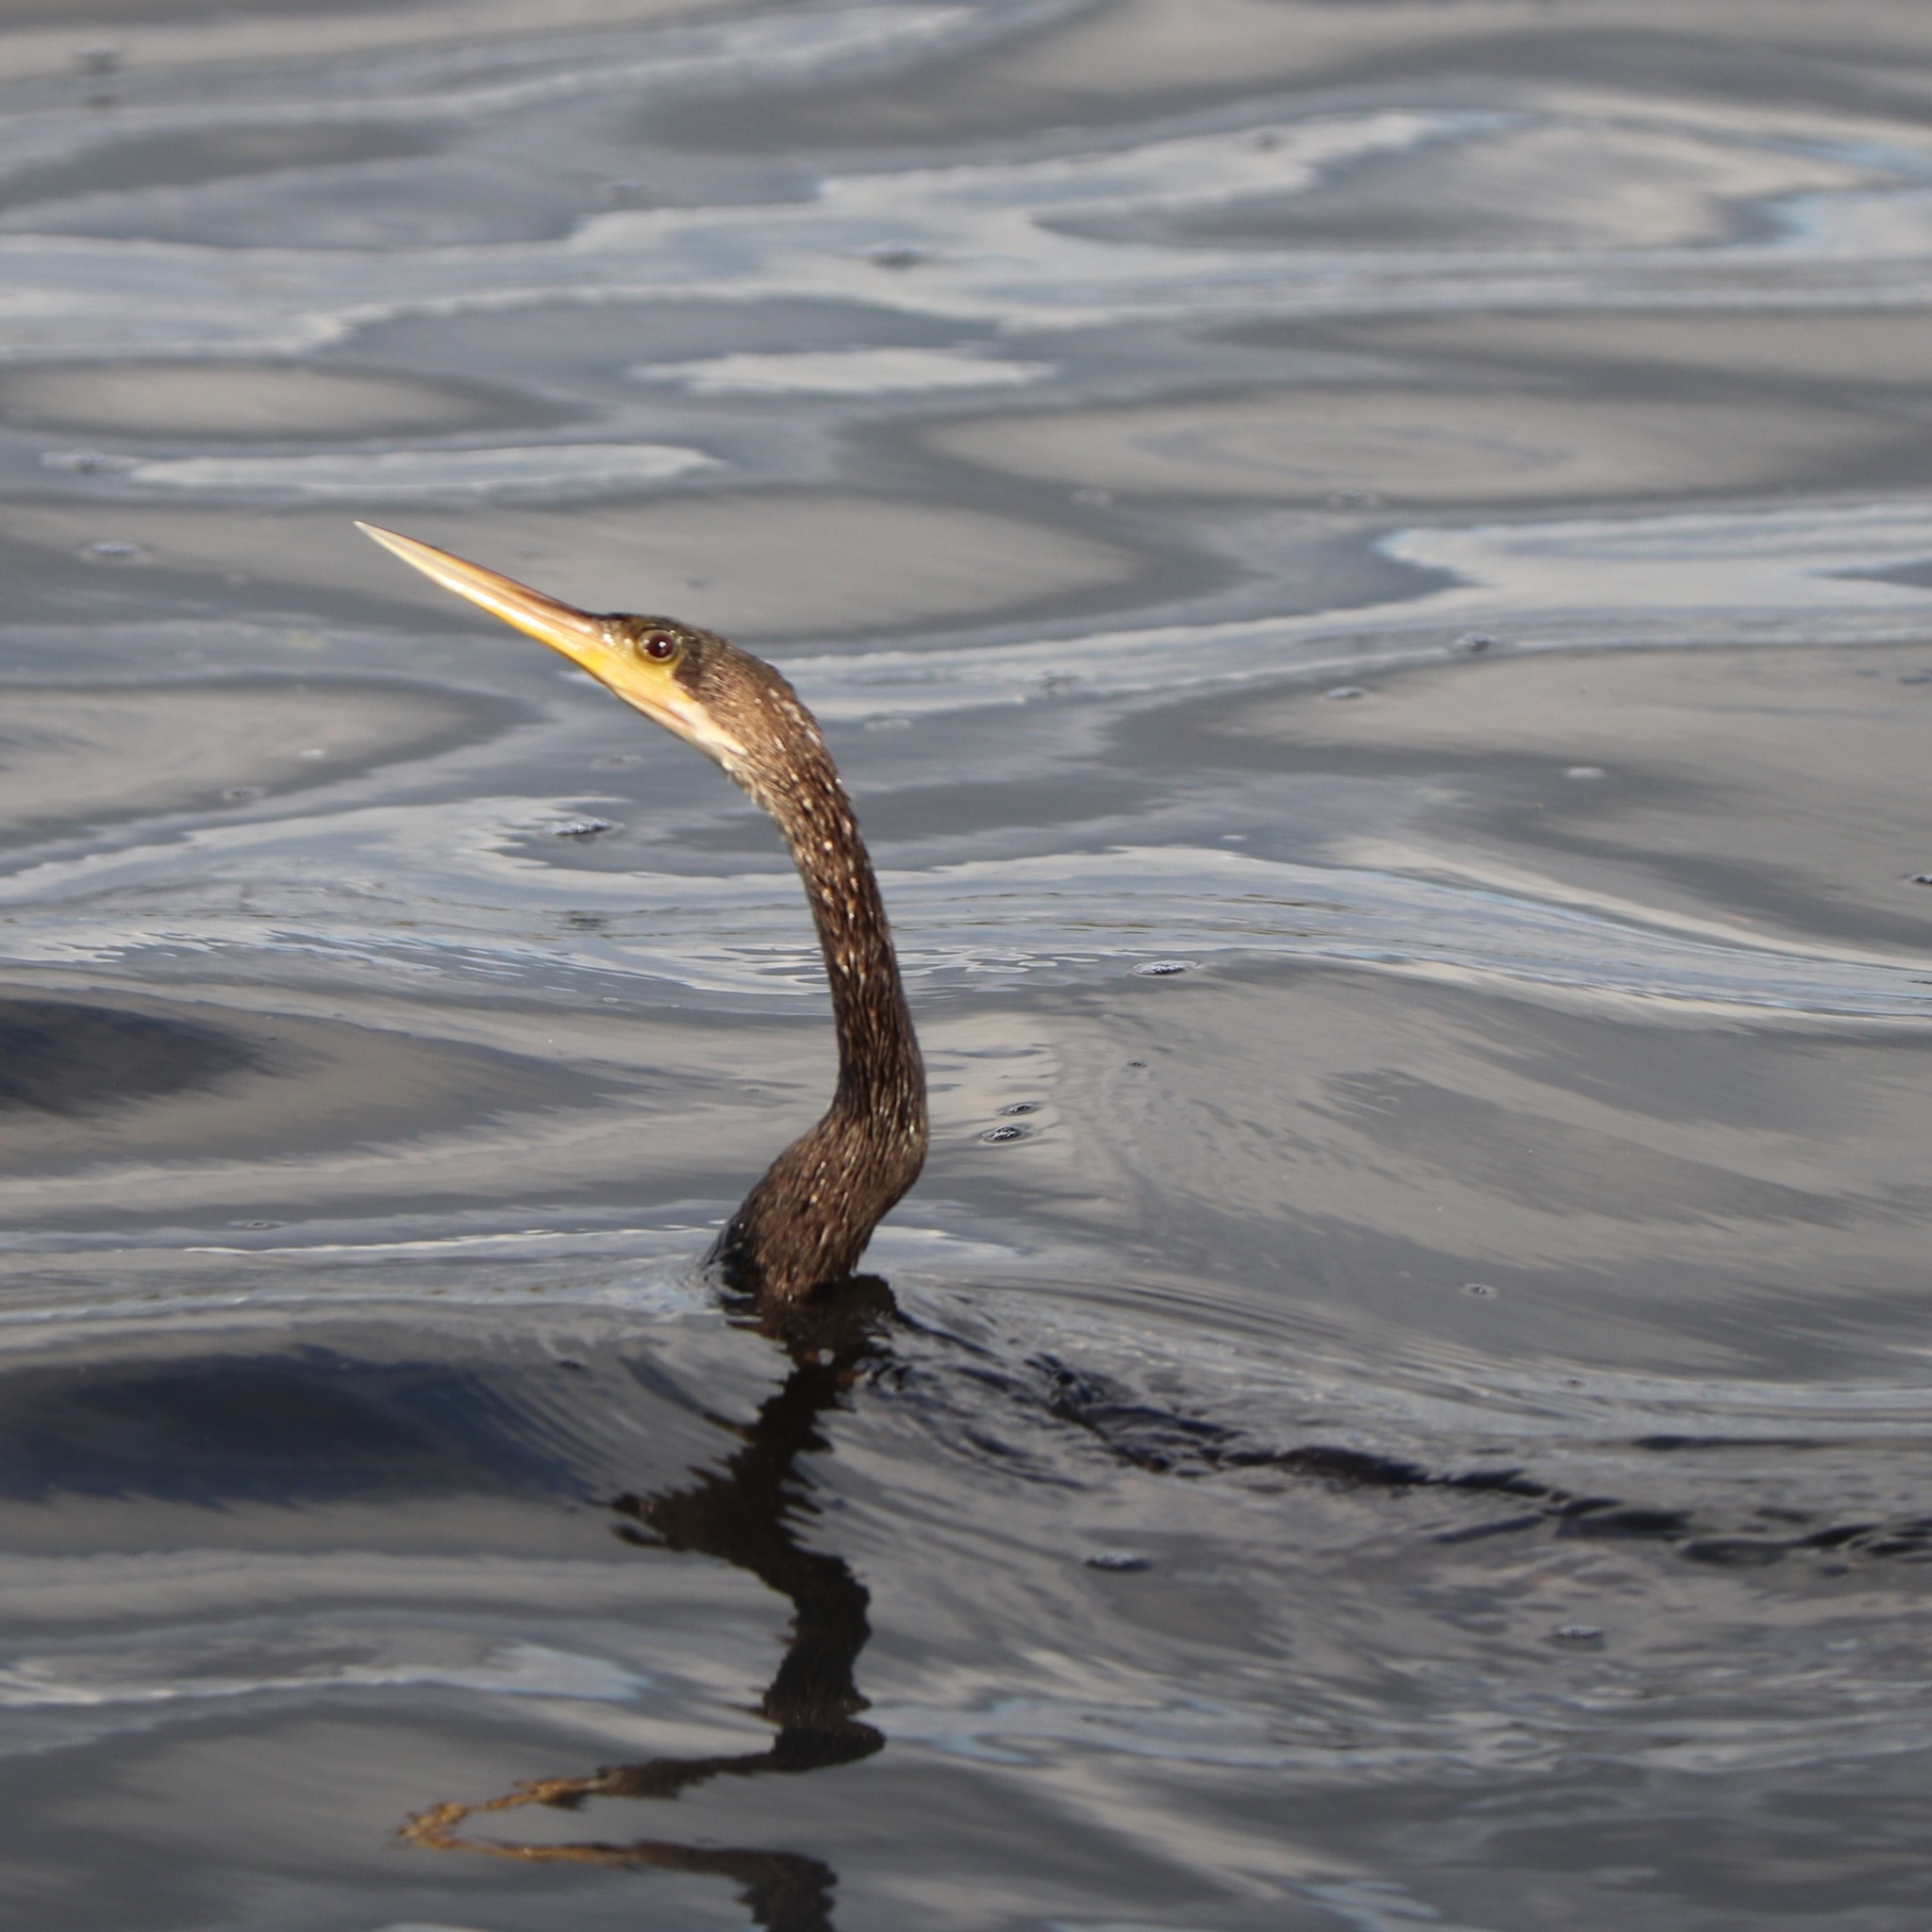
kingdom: Animalia
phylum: Chordata
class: Aves
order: Suliformes
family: Anhingidae
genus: Anhinga
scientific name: Anhinga anhinga
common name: Anhinga
